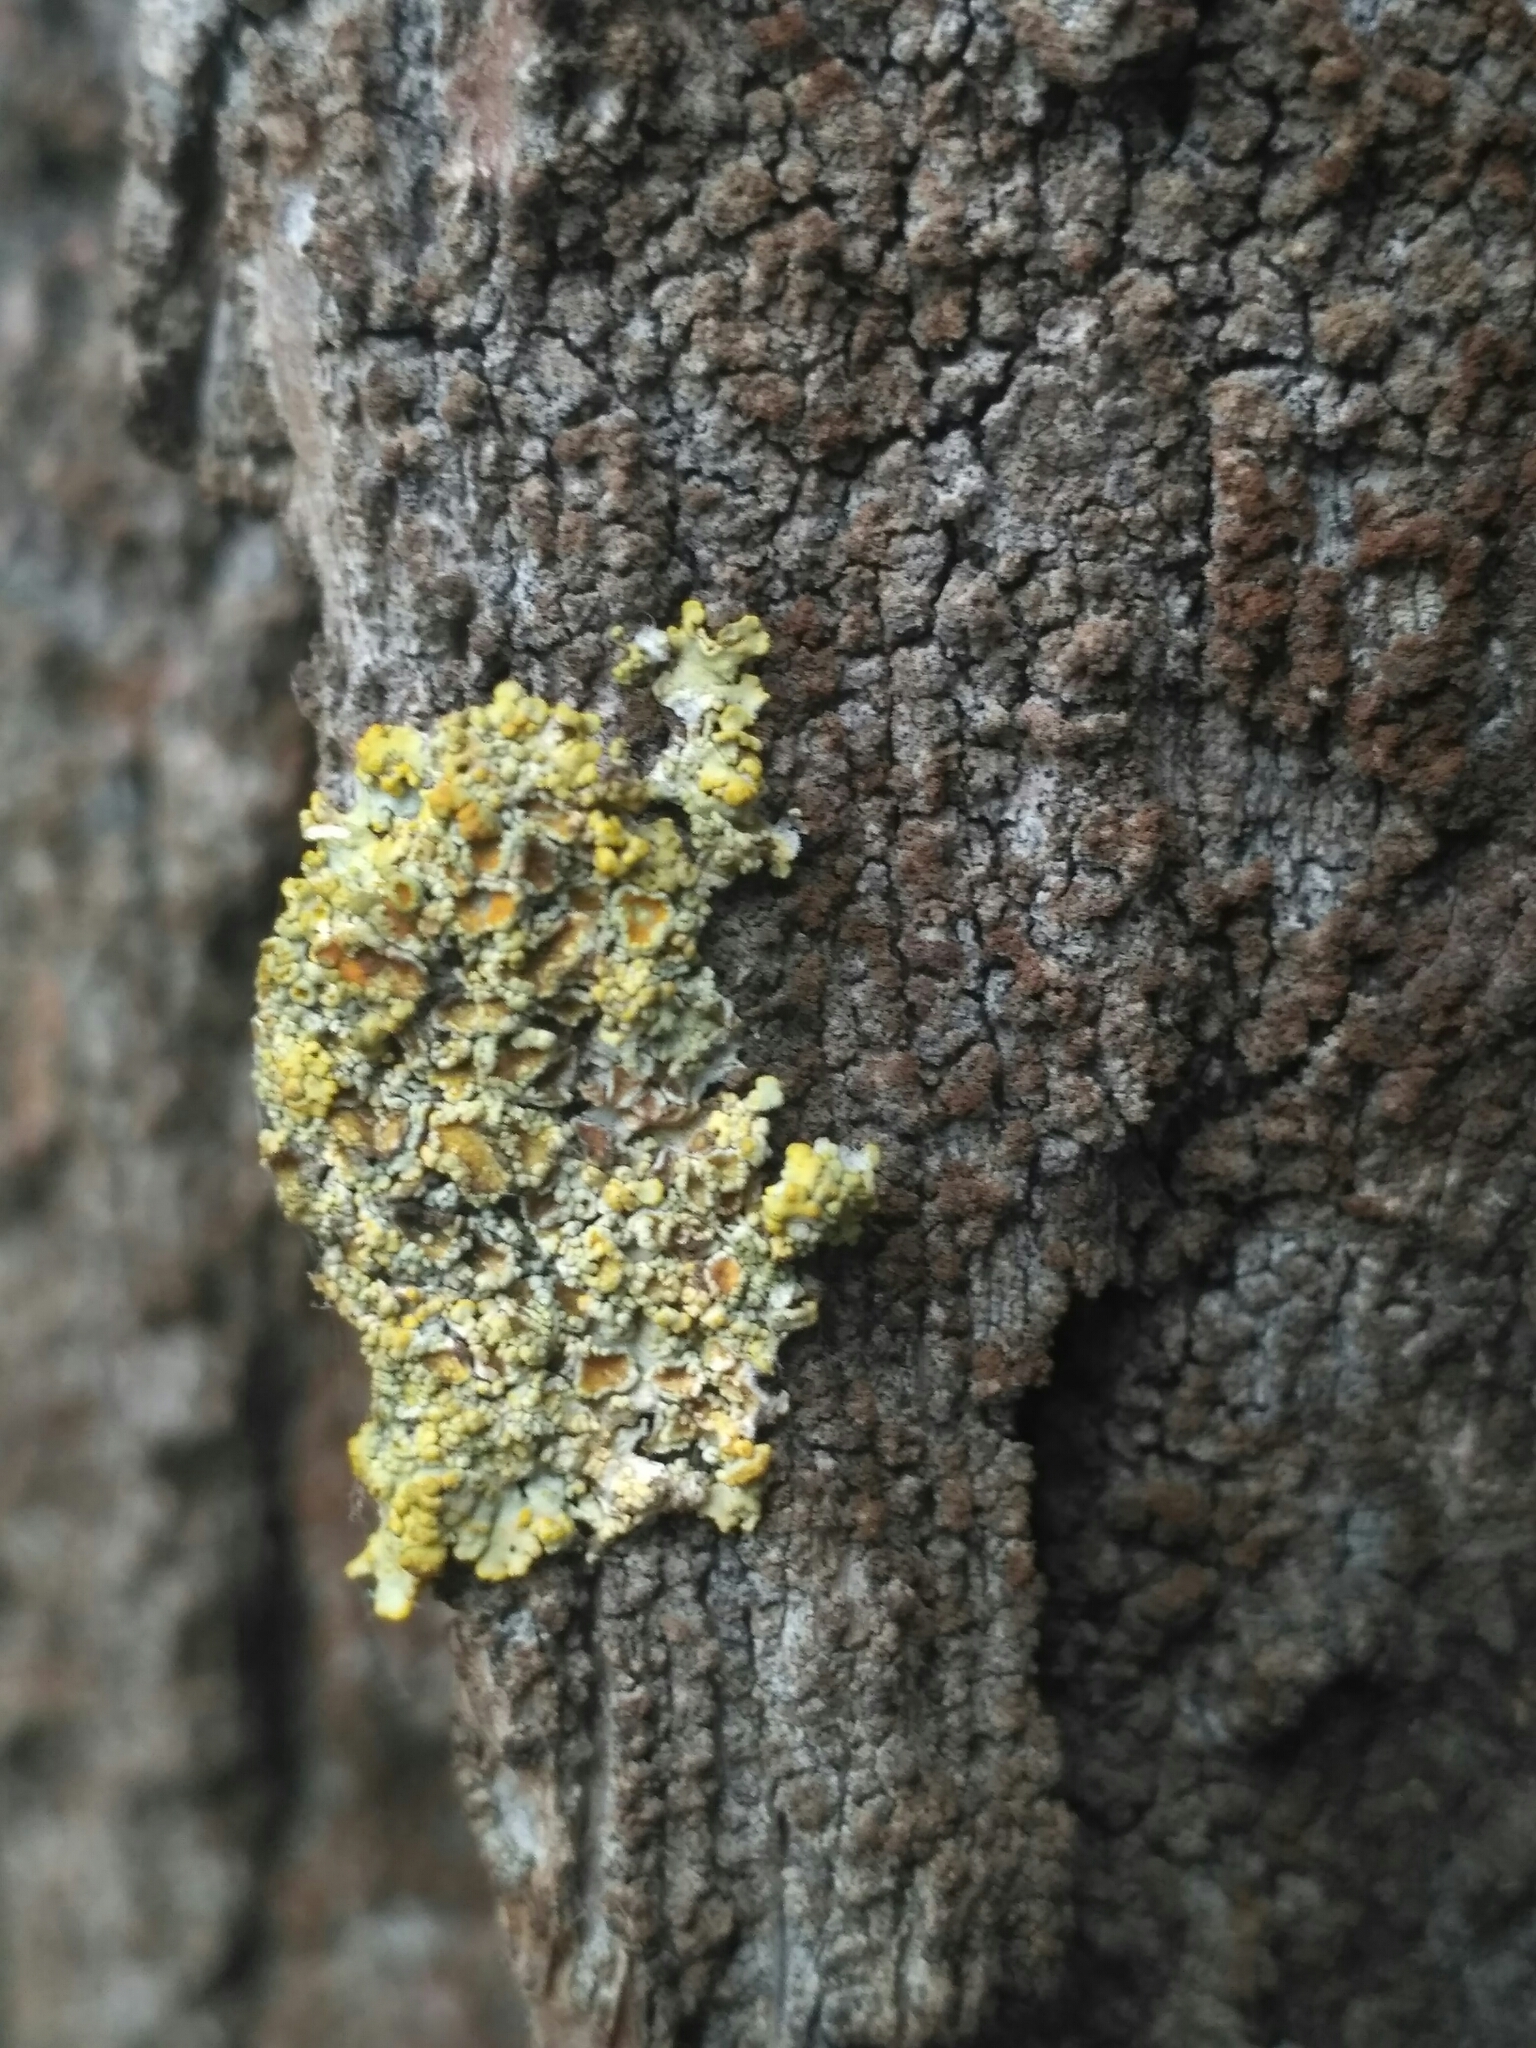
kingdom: Fungi
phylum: Ascomycota
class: Lecanoromycetes
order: Teloschistales
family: Teloschistaceae
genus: Xanthoria
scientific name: Xanthoria parietina
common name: Common orange lichen
